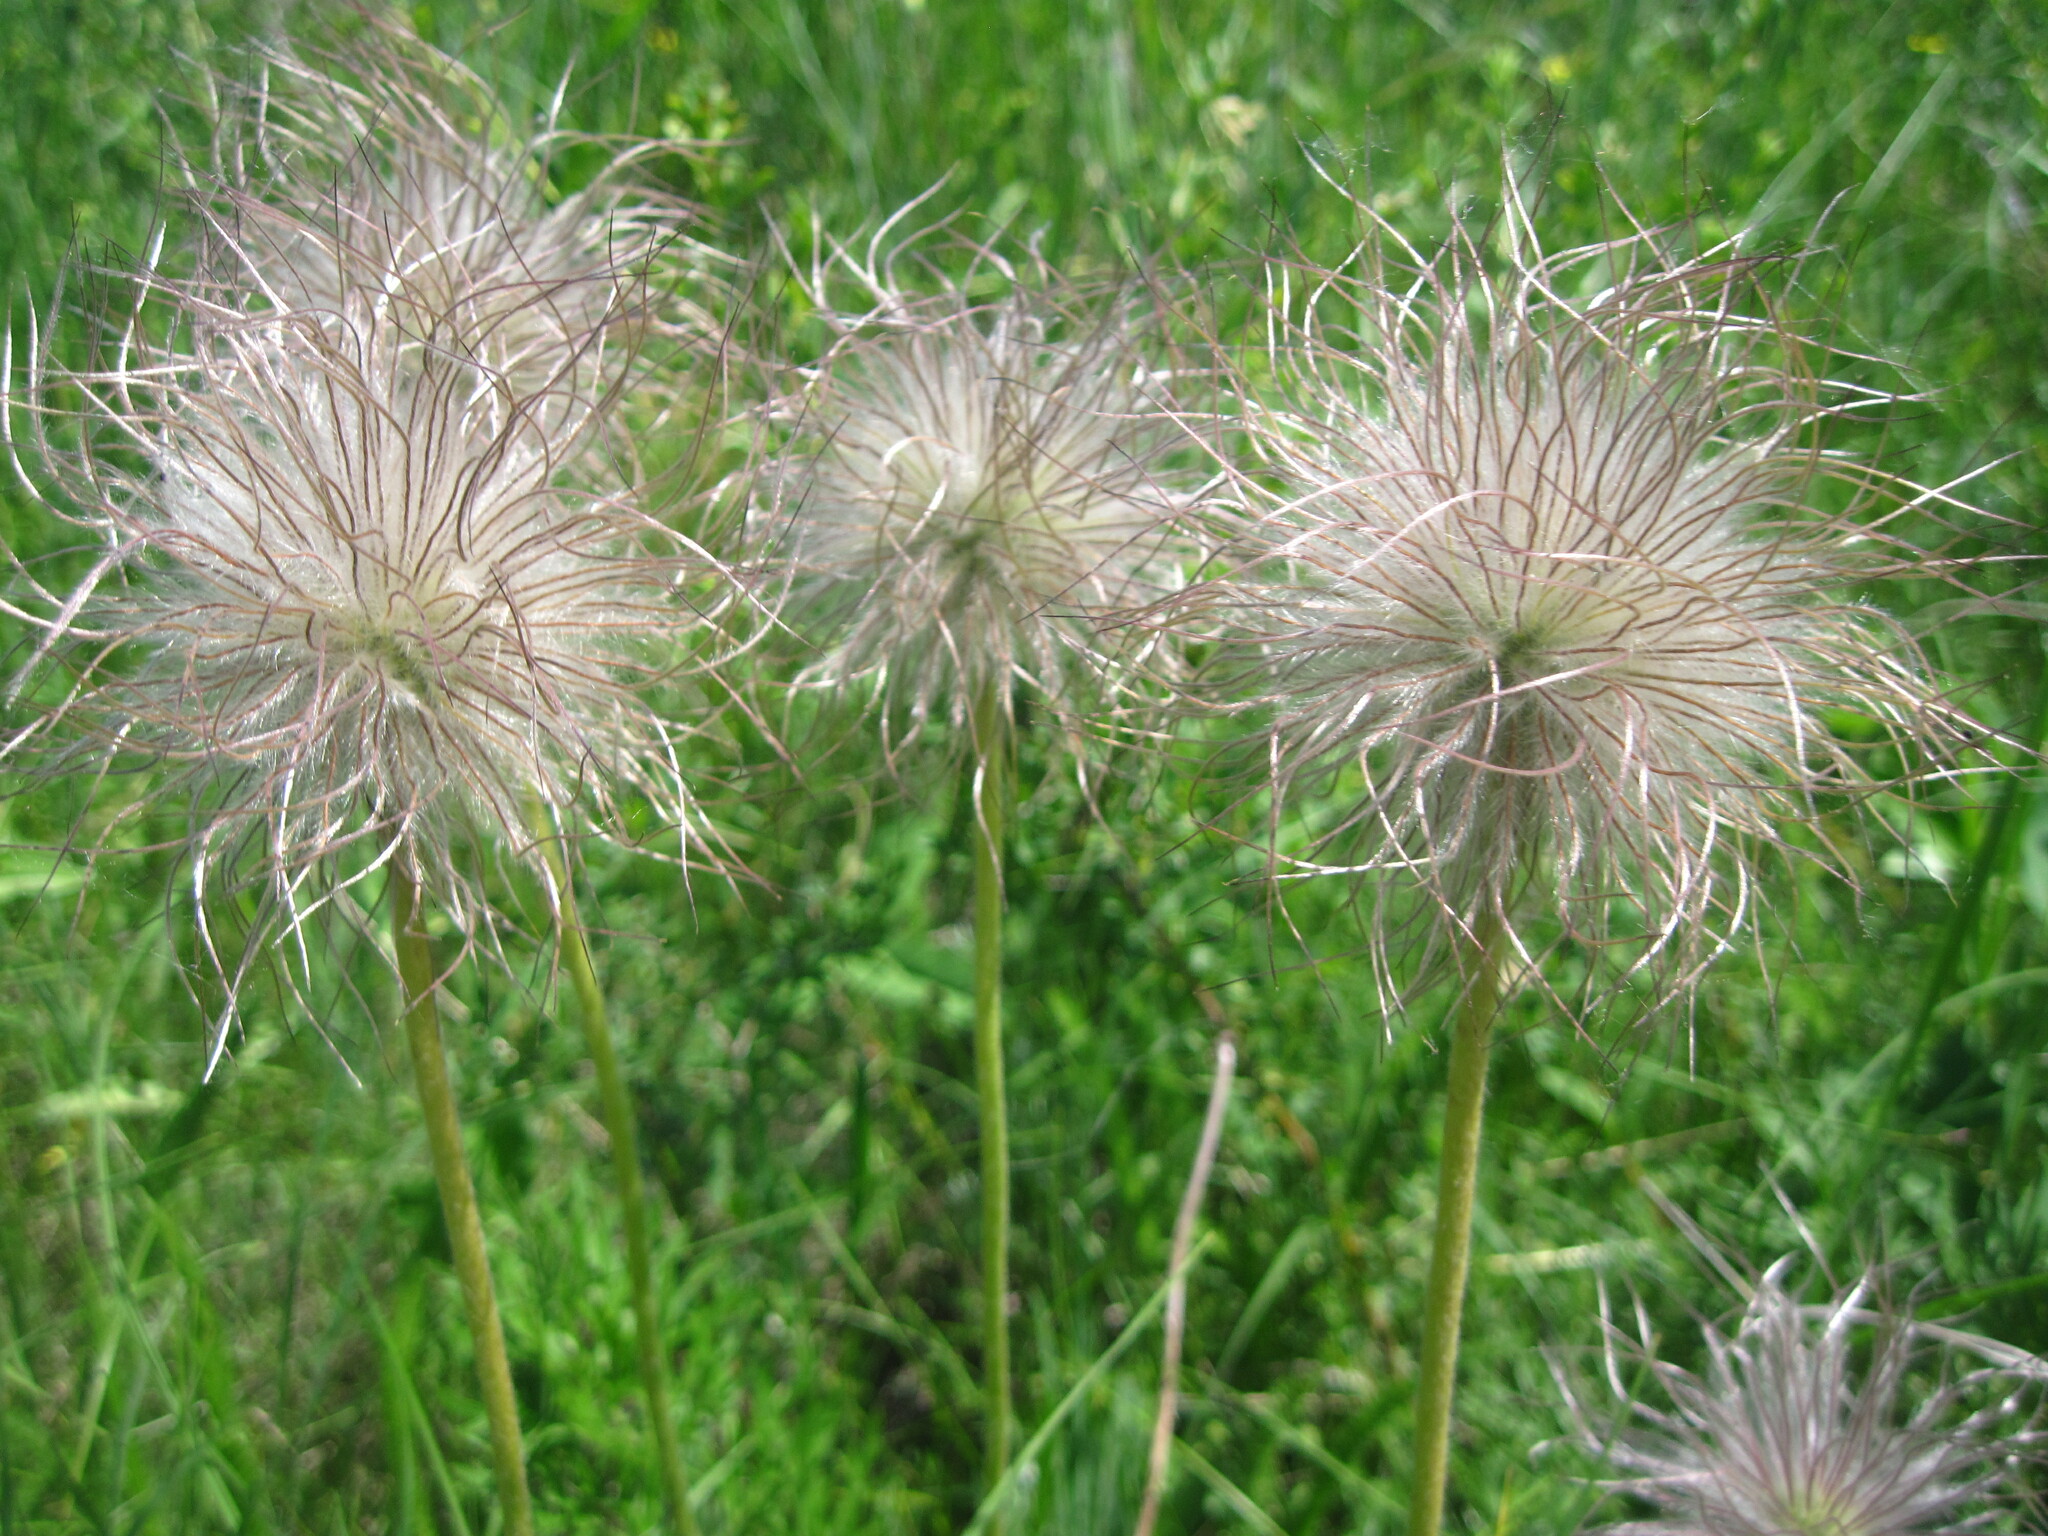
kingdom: Plantae
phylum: Tracheophyta
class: Magnoliopsida
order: Ranunculales
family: Ranunculaceae
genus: Pulsatilla
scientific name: Pulsatilla pratensis
